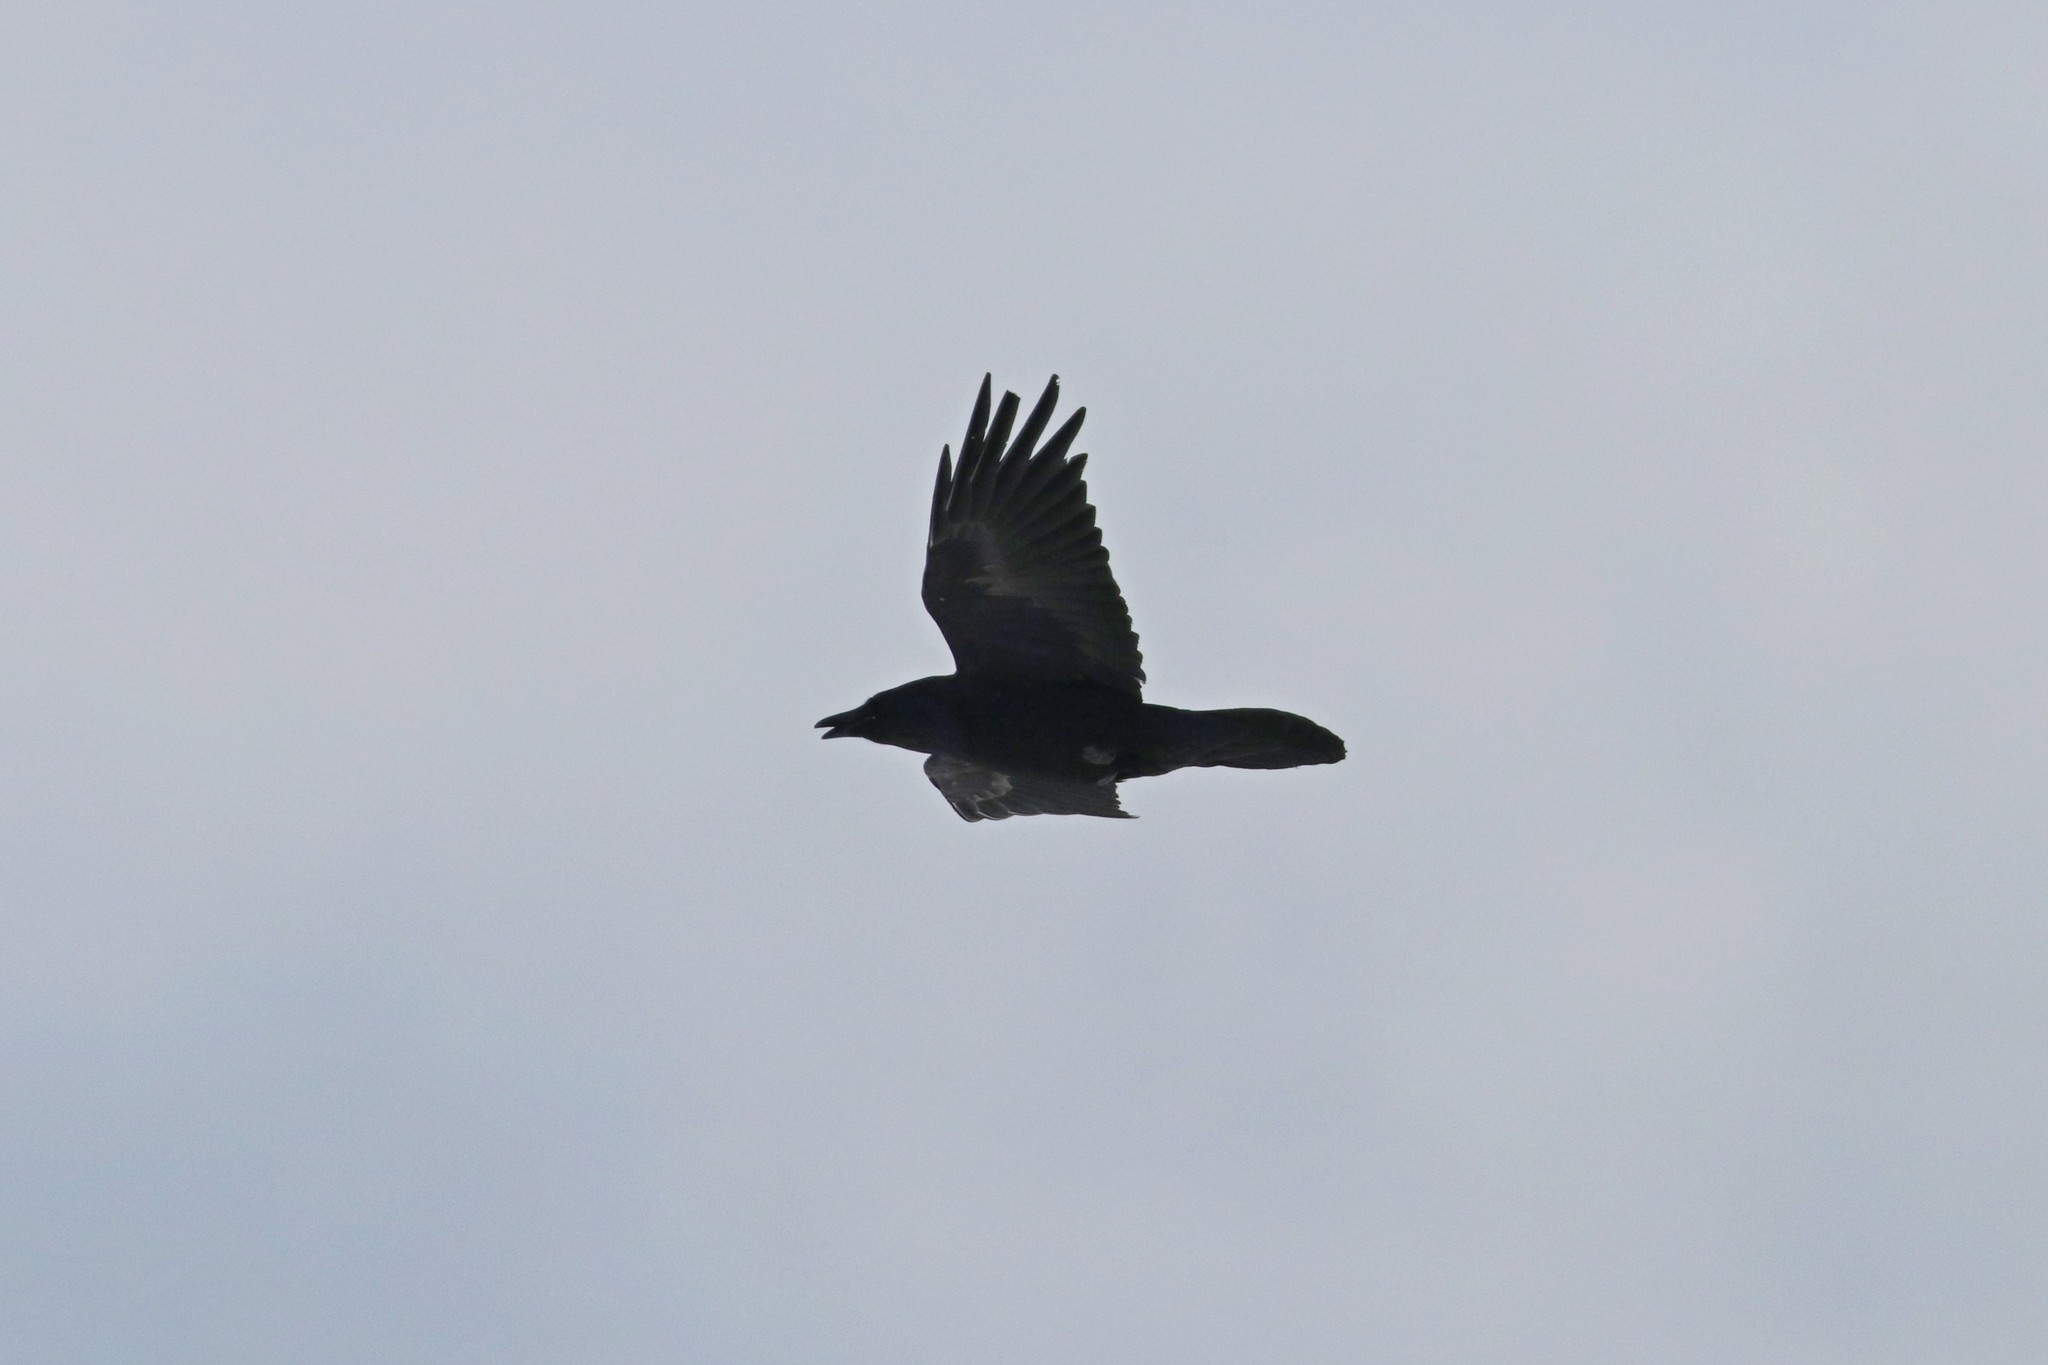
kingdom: Animalia
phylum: Chordata
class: Aves
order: Passeriformes
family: Corvidae
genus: Corvus
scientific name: Corvus corax
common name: Common raven
